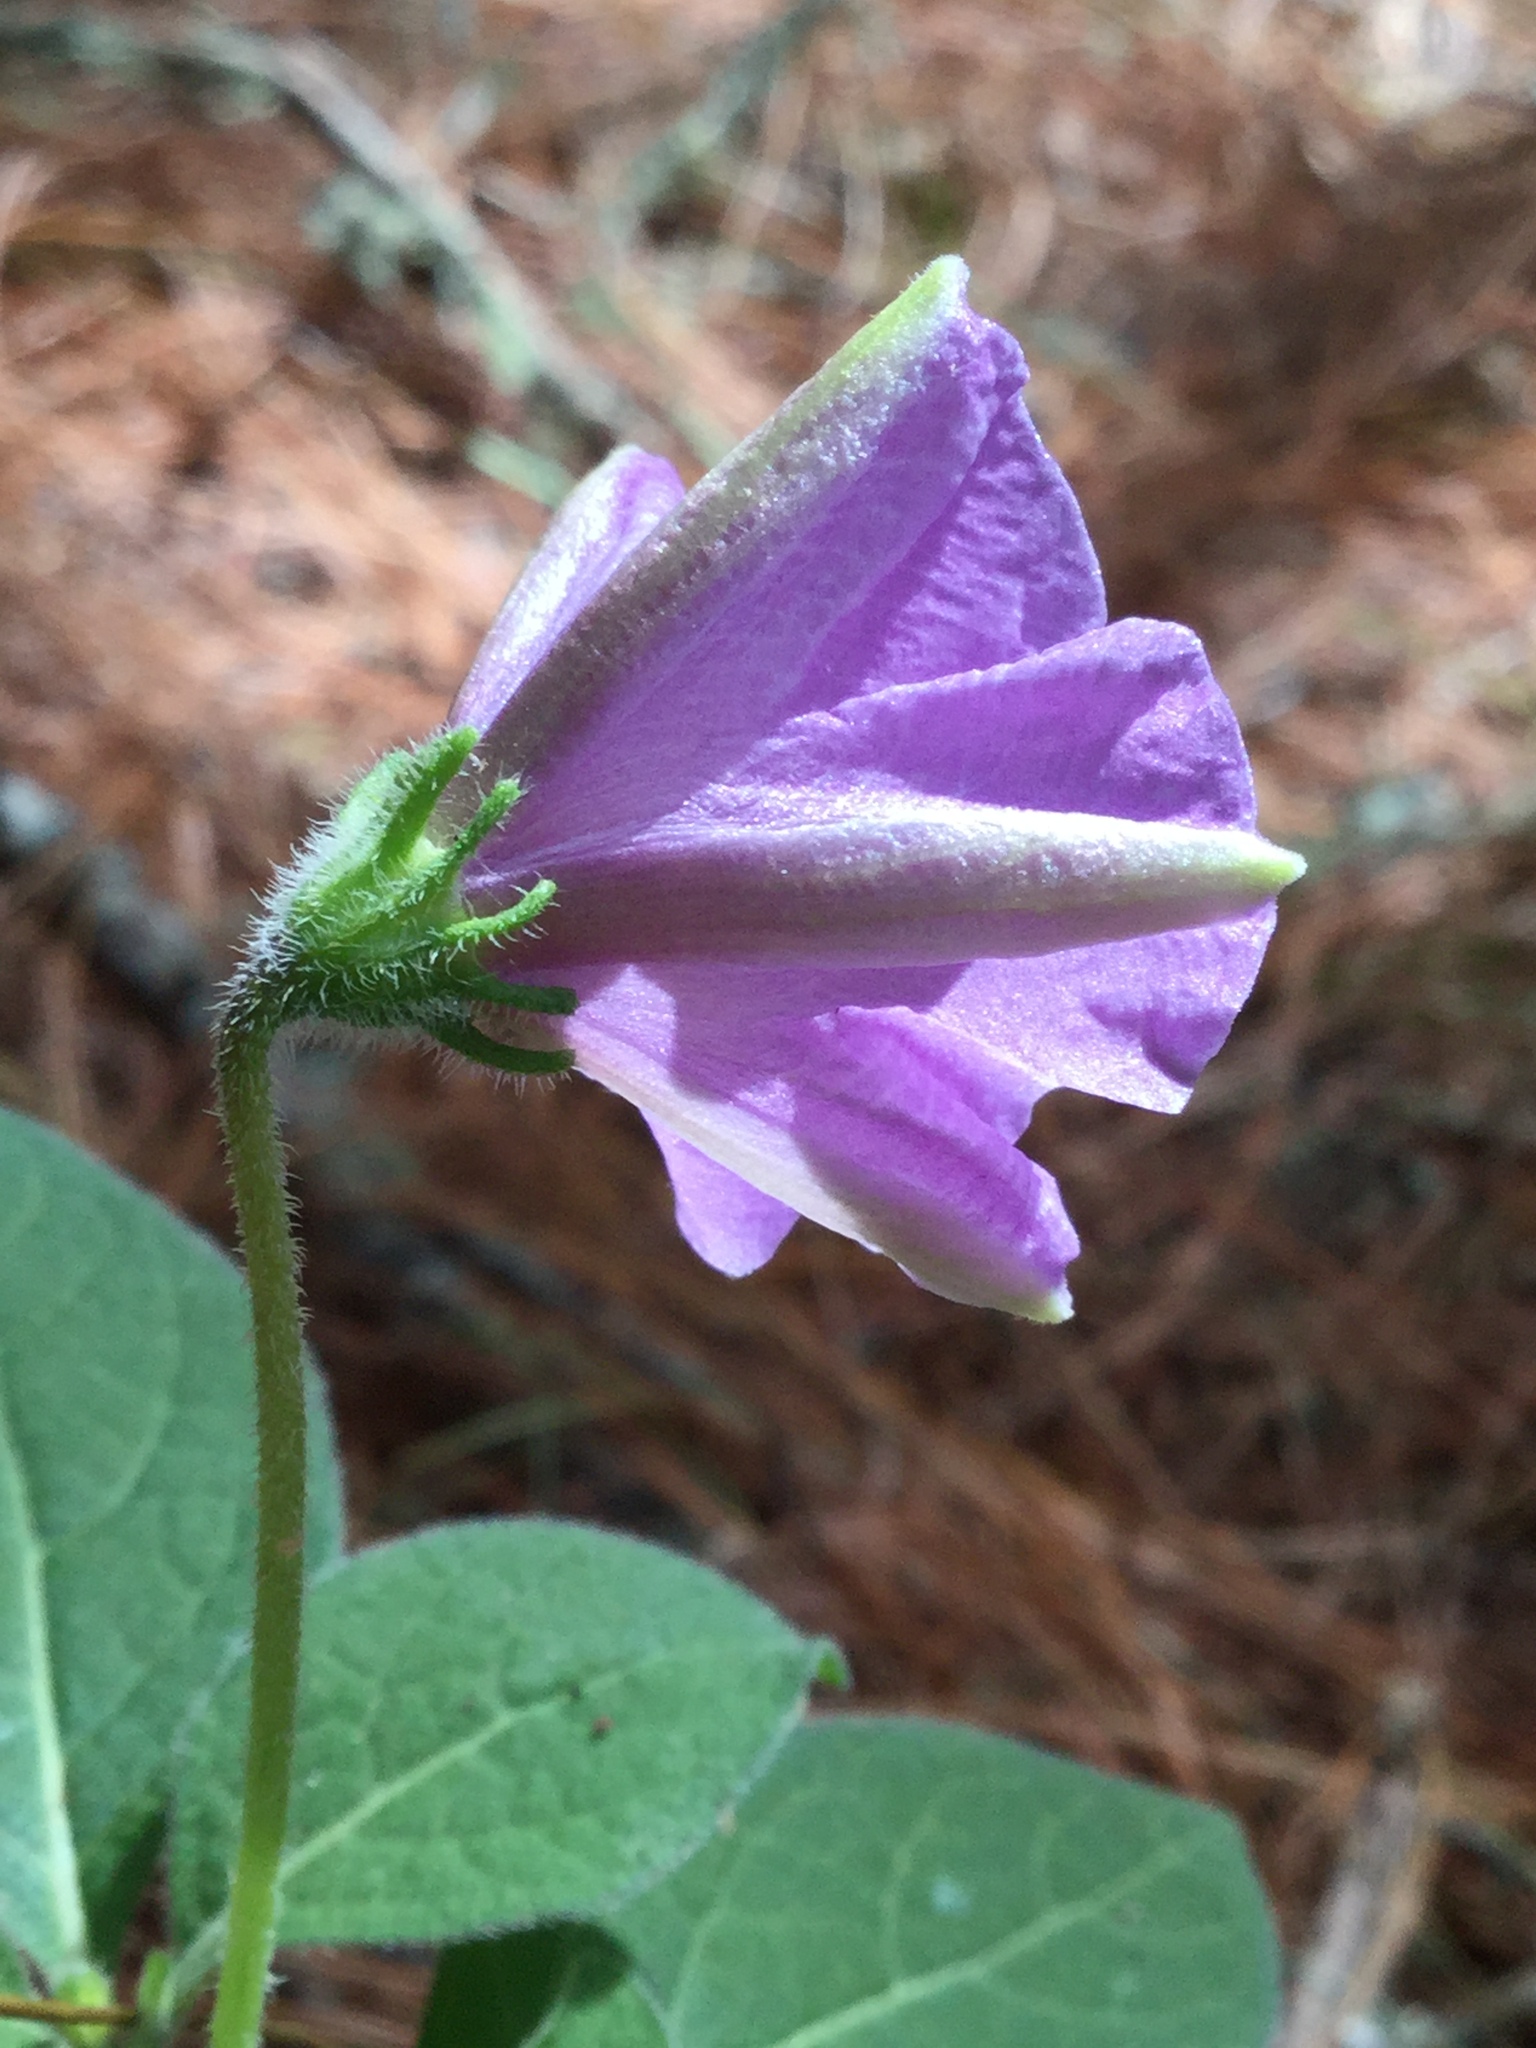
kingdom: Plantae
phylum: Tracheophyta
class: Magnoliopsida
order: Solanales
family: Solanaceae
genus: Lycianthes
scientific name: Lycianthes moziniana
